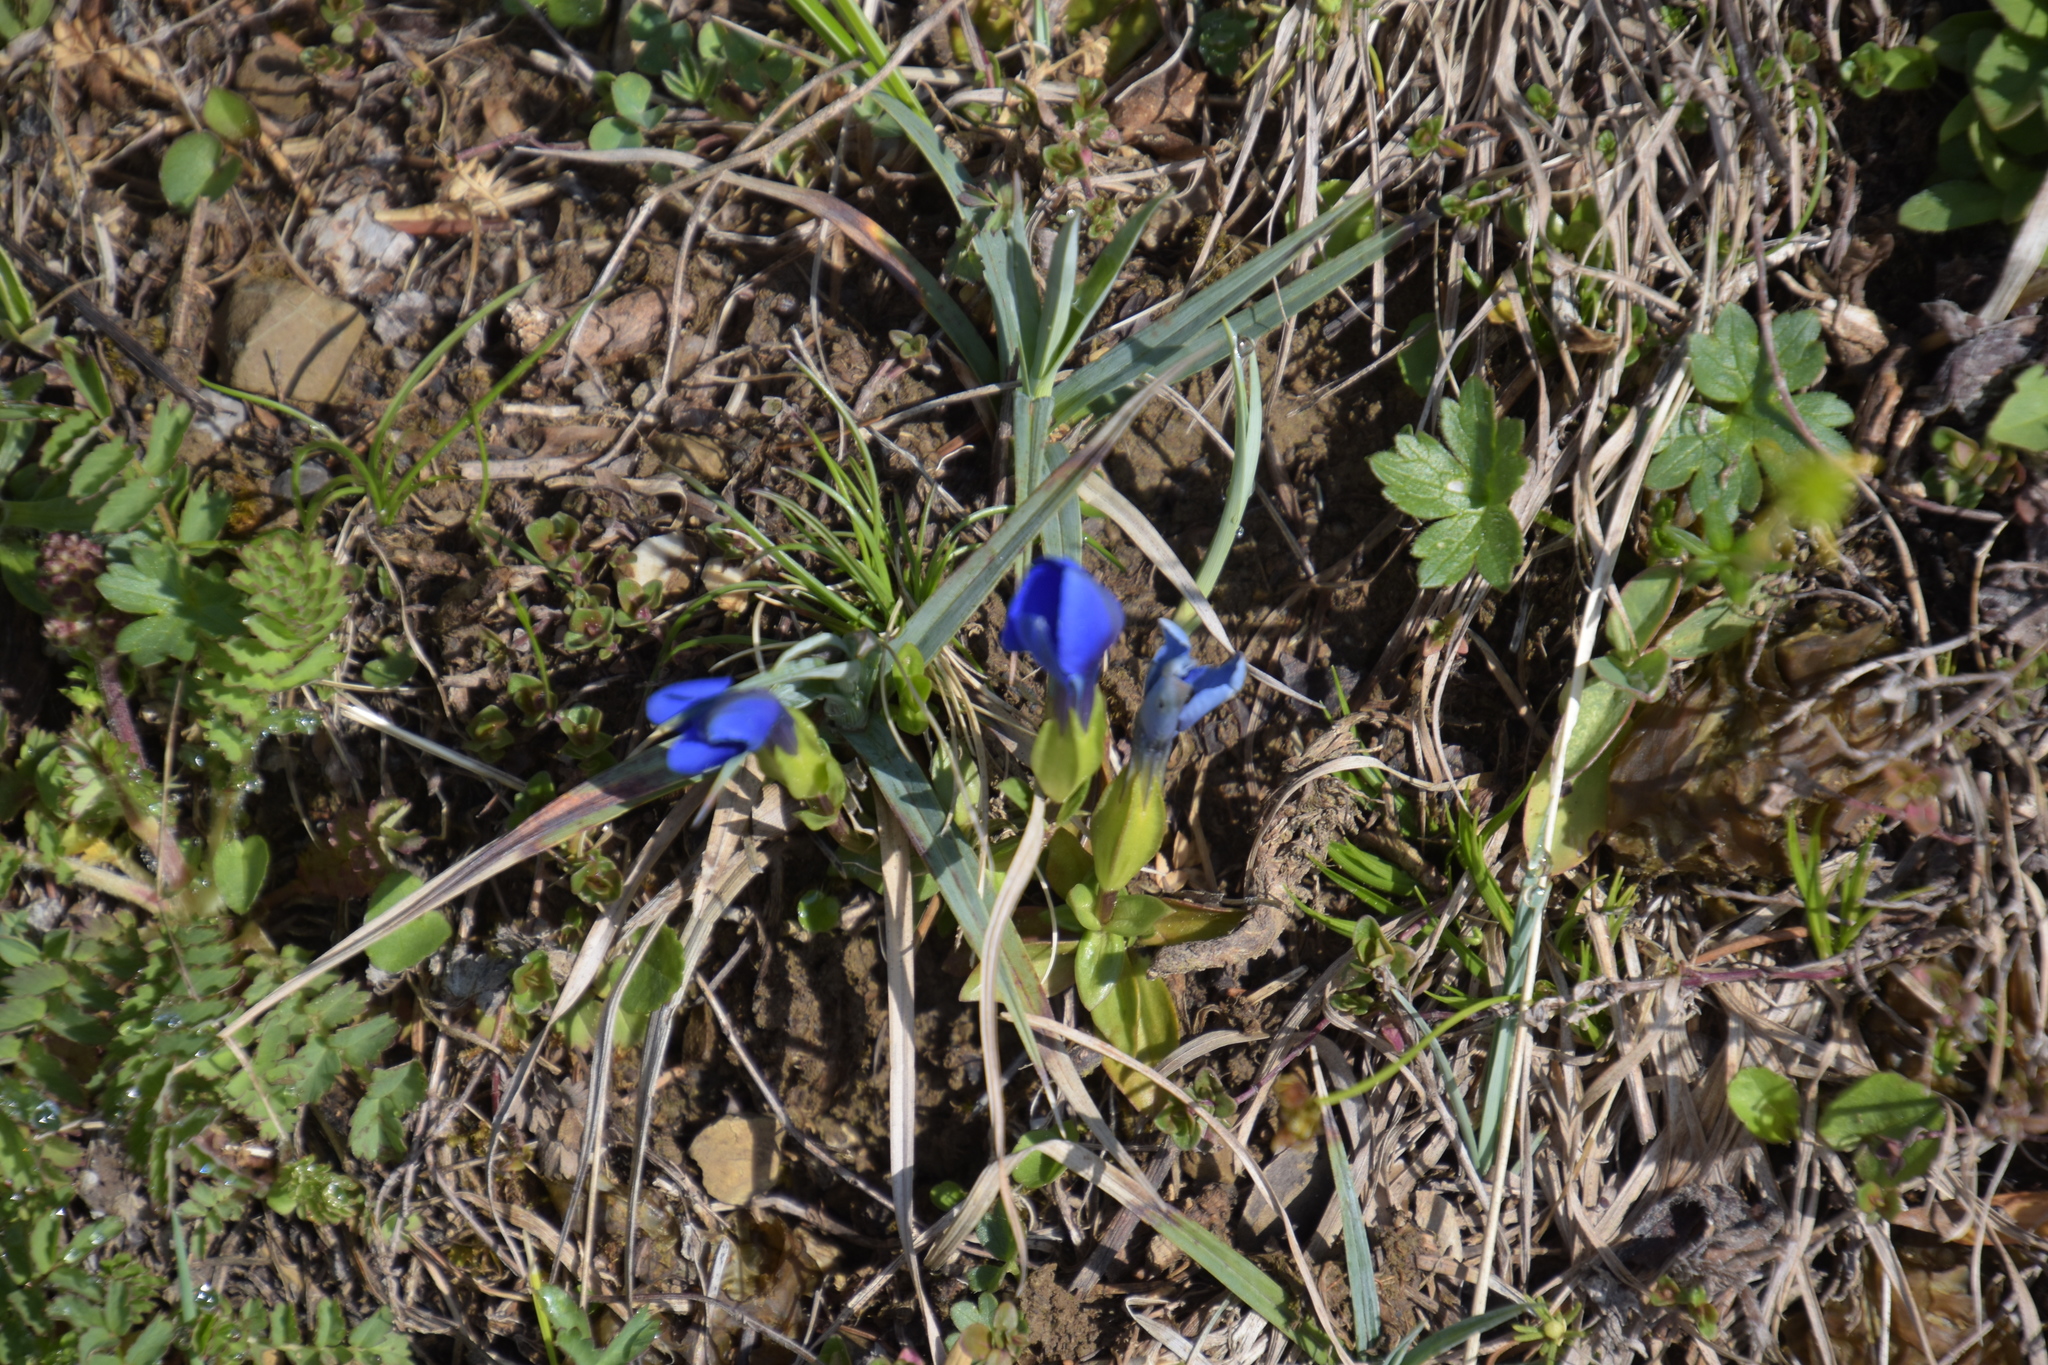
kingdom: Plantae
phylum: Tracheophyta
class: Magnoliopsida
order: Gentianales
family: Gentianaceae
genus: Gentiana
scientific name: Gentiana verna
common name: Spring gentian
